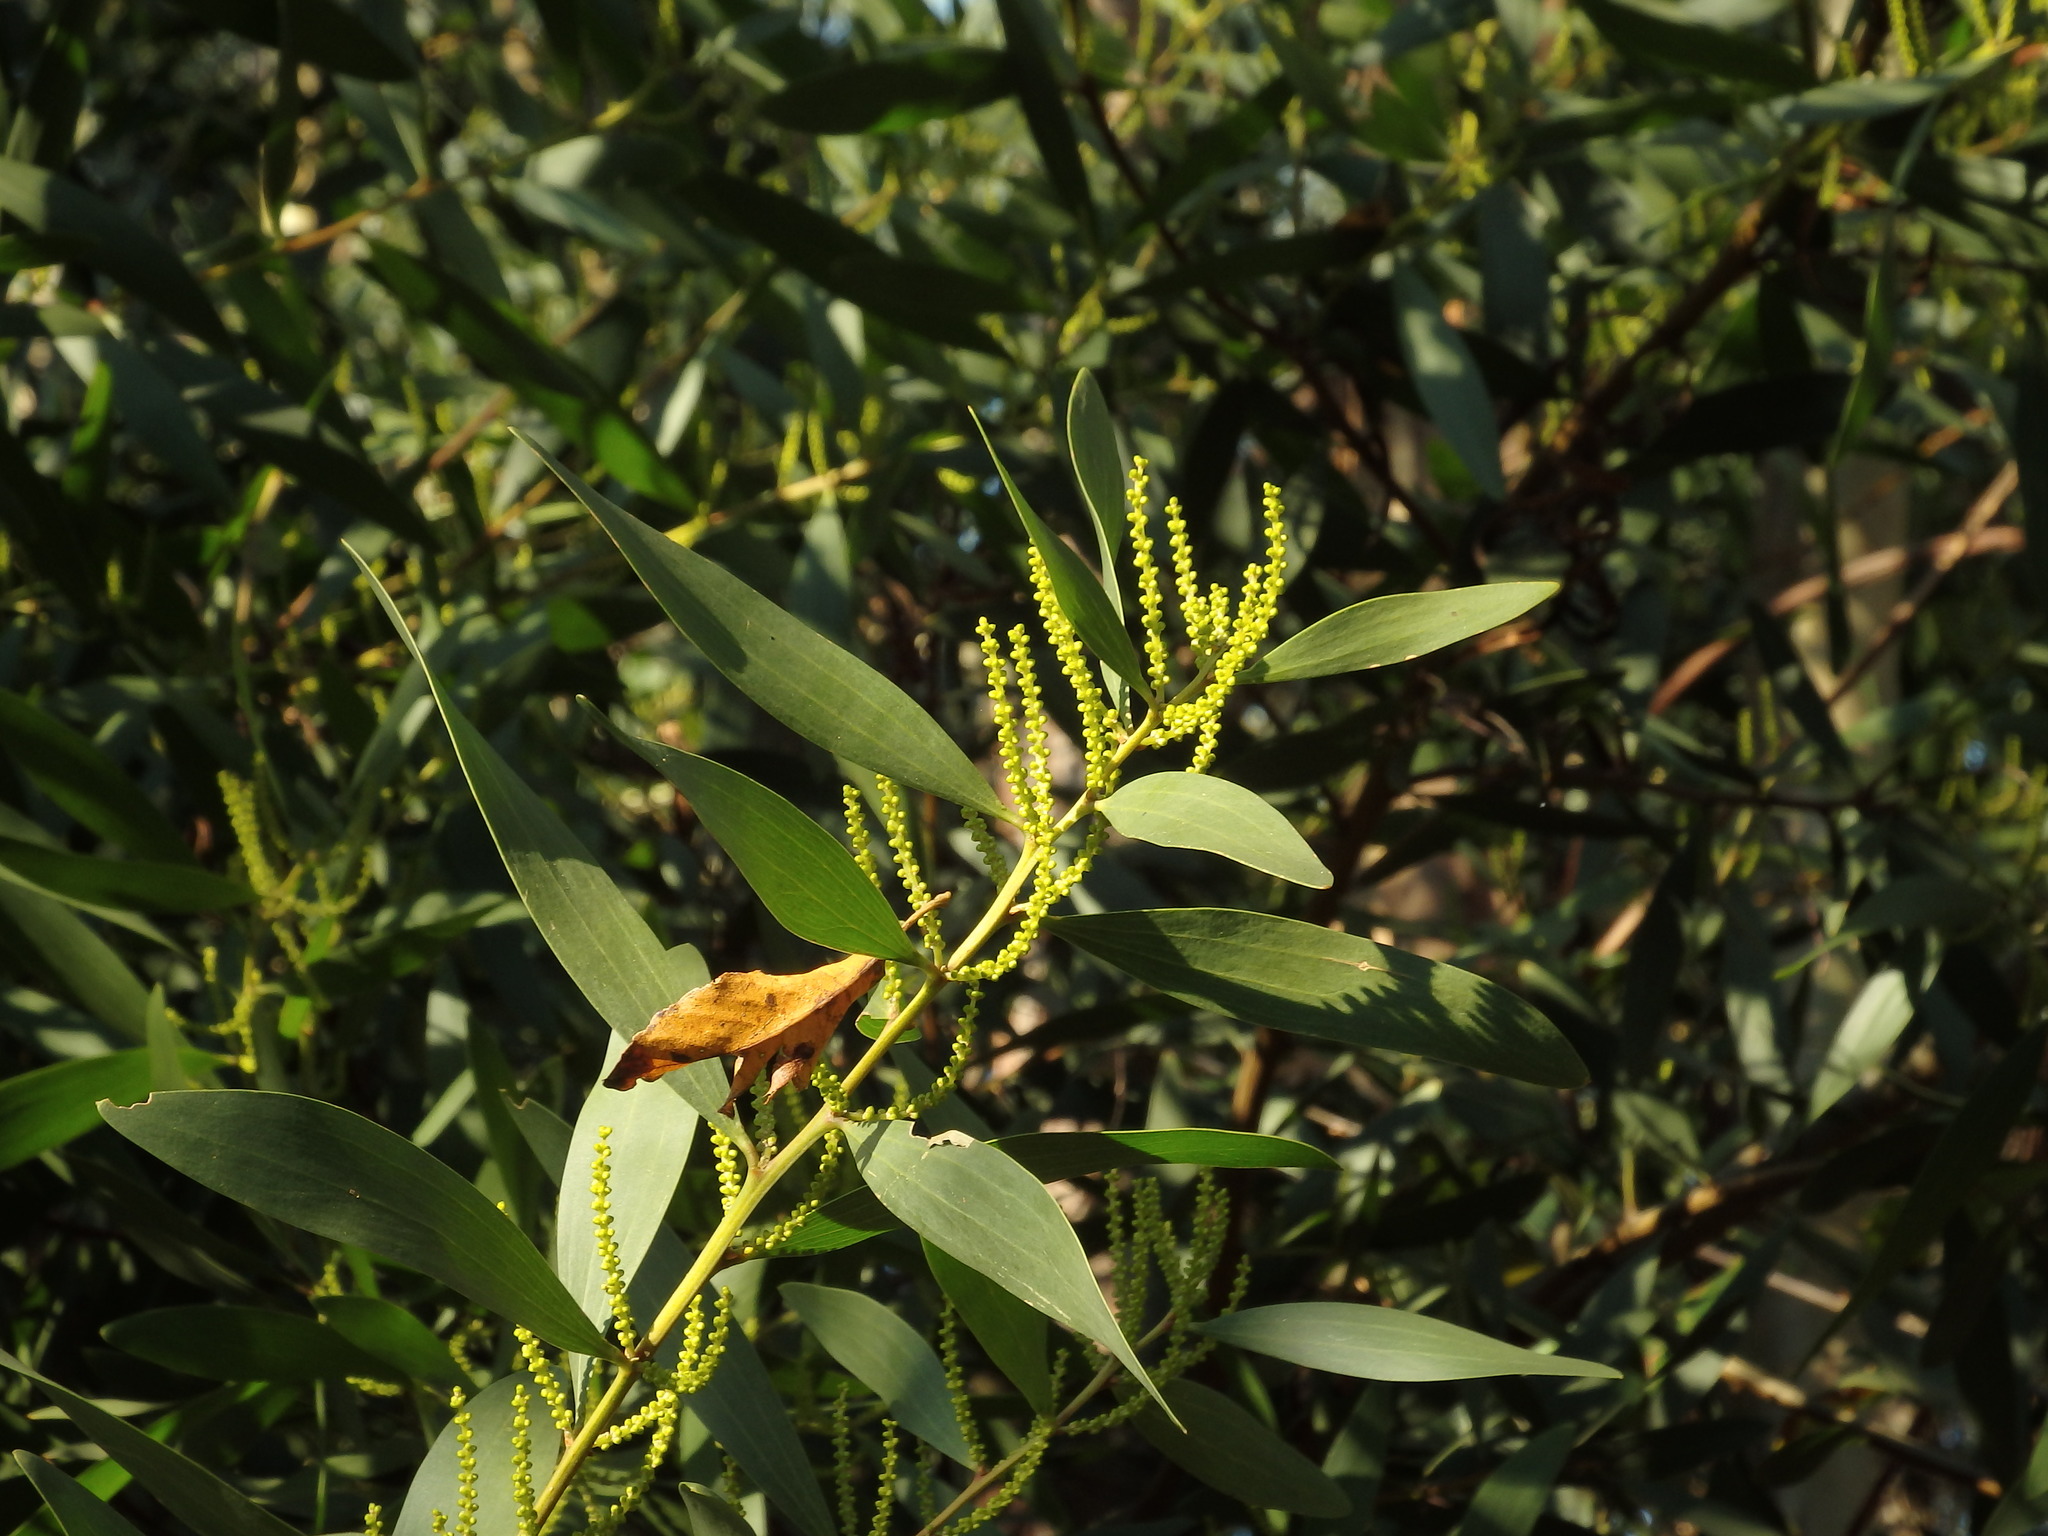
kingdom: Plantae
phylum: Tracheophyta
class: Magnoliopsida
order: Fabales
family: Fabaceae
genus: Acacia
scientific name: Acacia longifolia
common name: Sydney golden wattle
